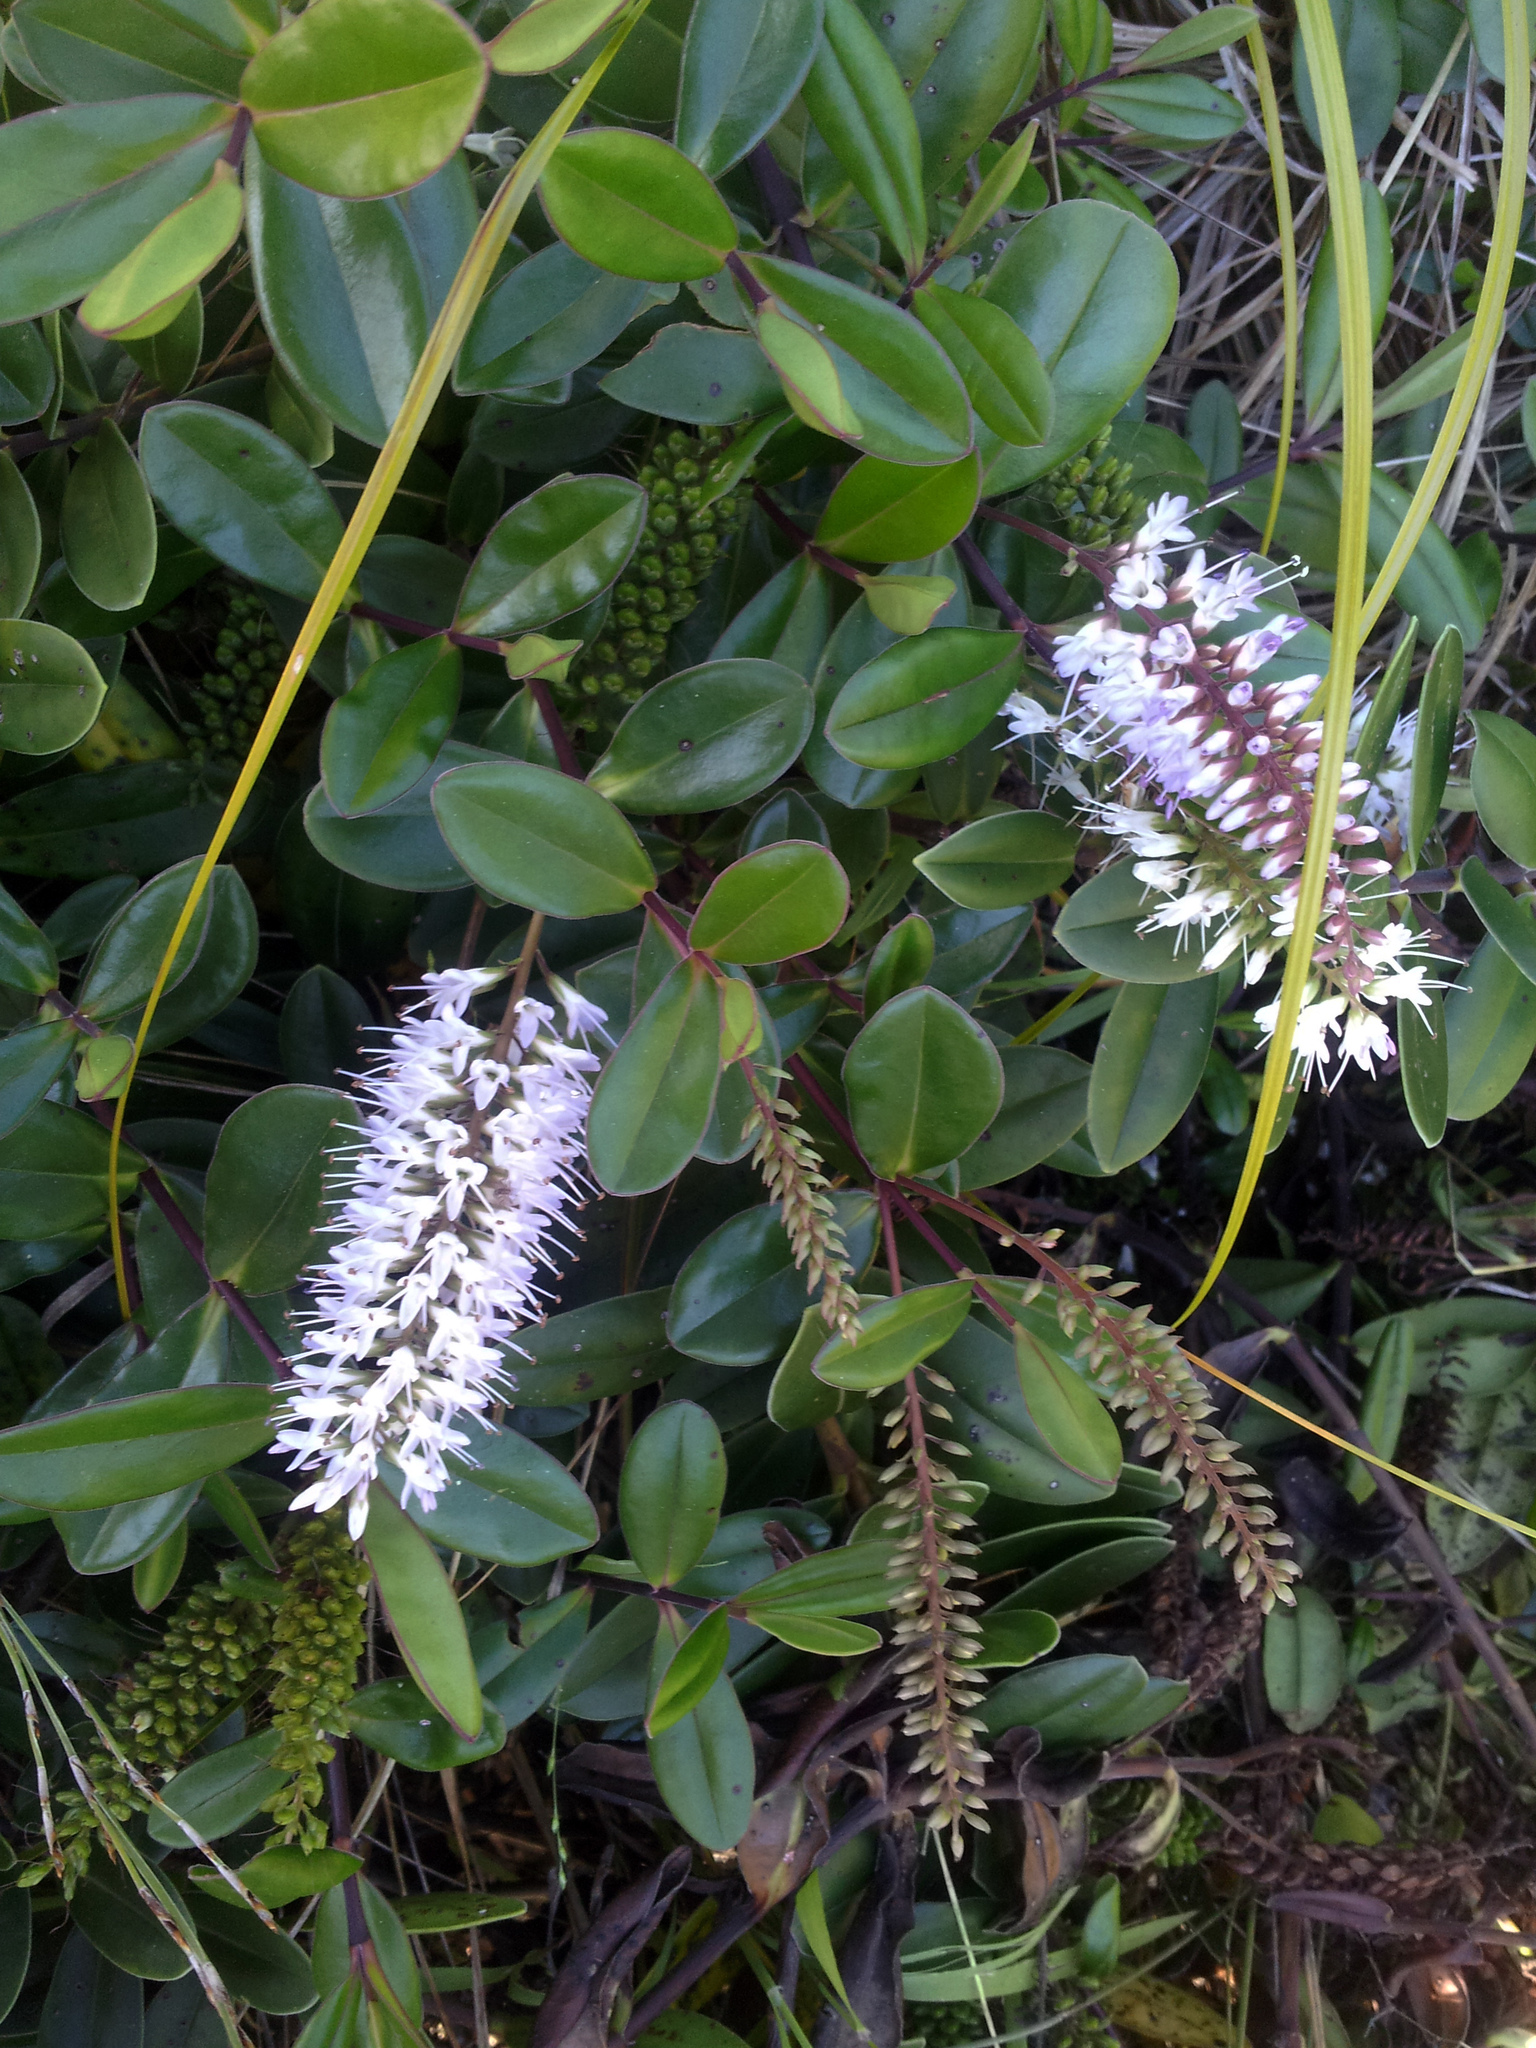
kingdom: Plantae
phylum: Tracheophyta
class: Magnoliopsida
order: Lamiales
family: Plantaginaceae
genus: Veronica
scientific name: Veronica obtusata
